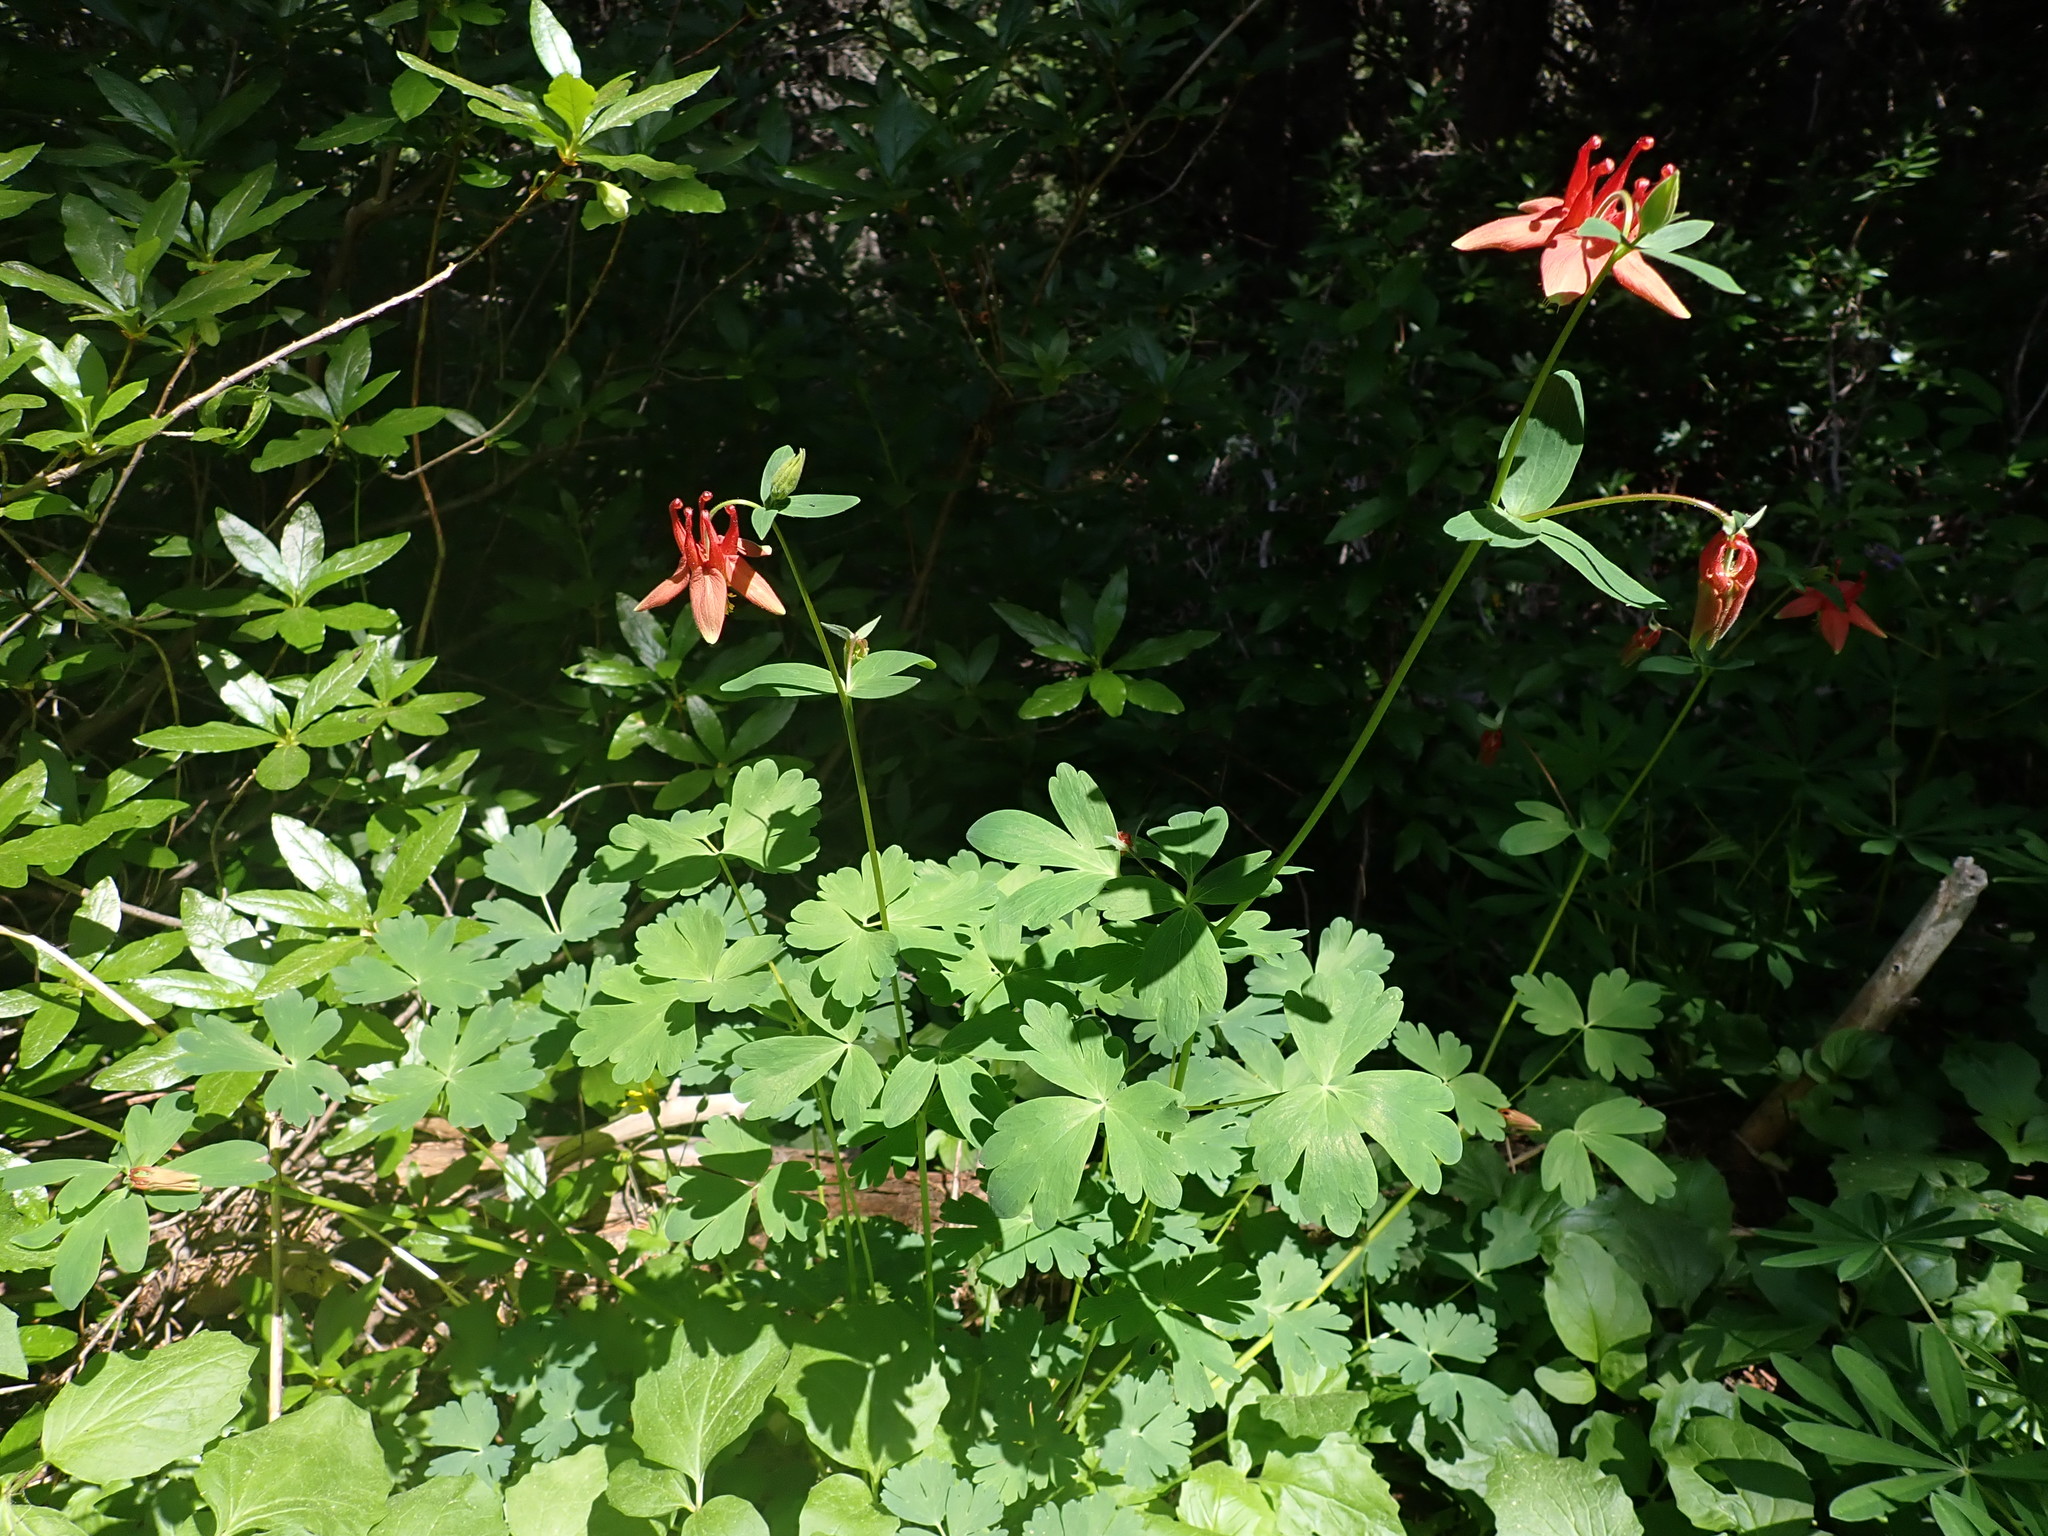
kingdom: Plantae
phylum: Tracheophyta
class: Magnoliopsida
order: Ranunculales
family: Ranunculaceae
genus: Aquilegia
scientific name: Aquilegia formosa
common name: Sitka columbine
